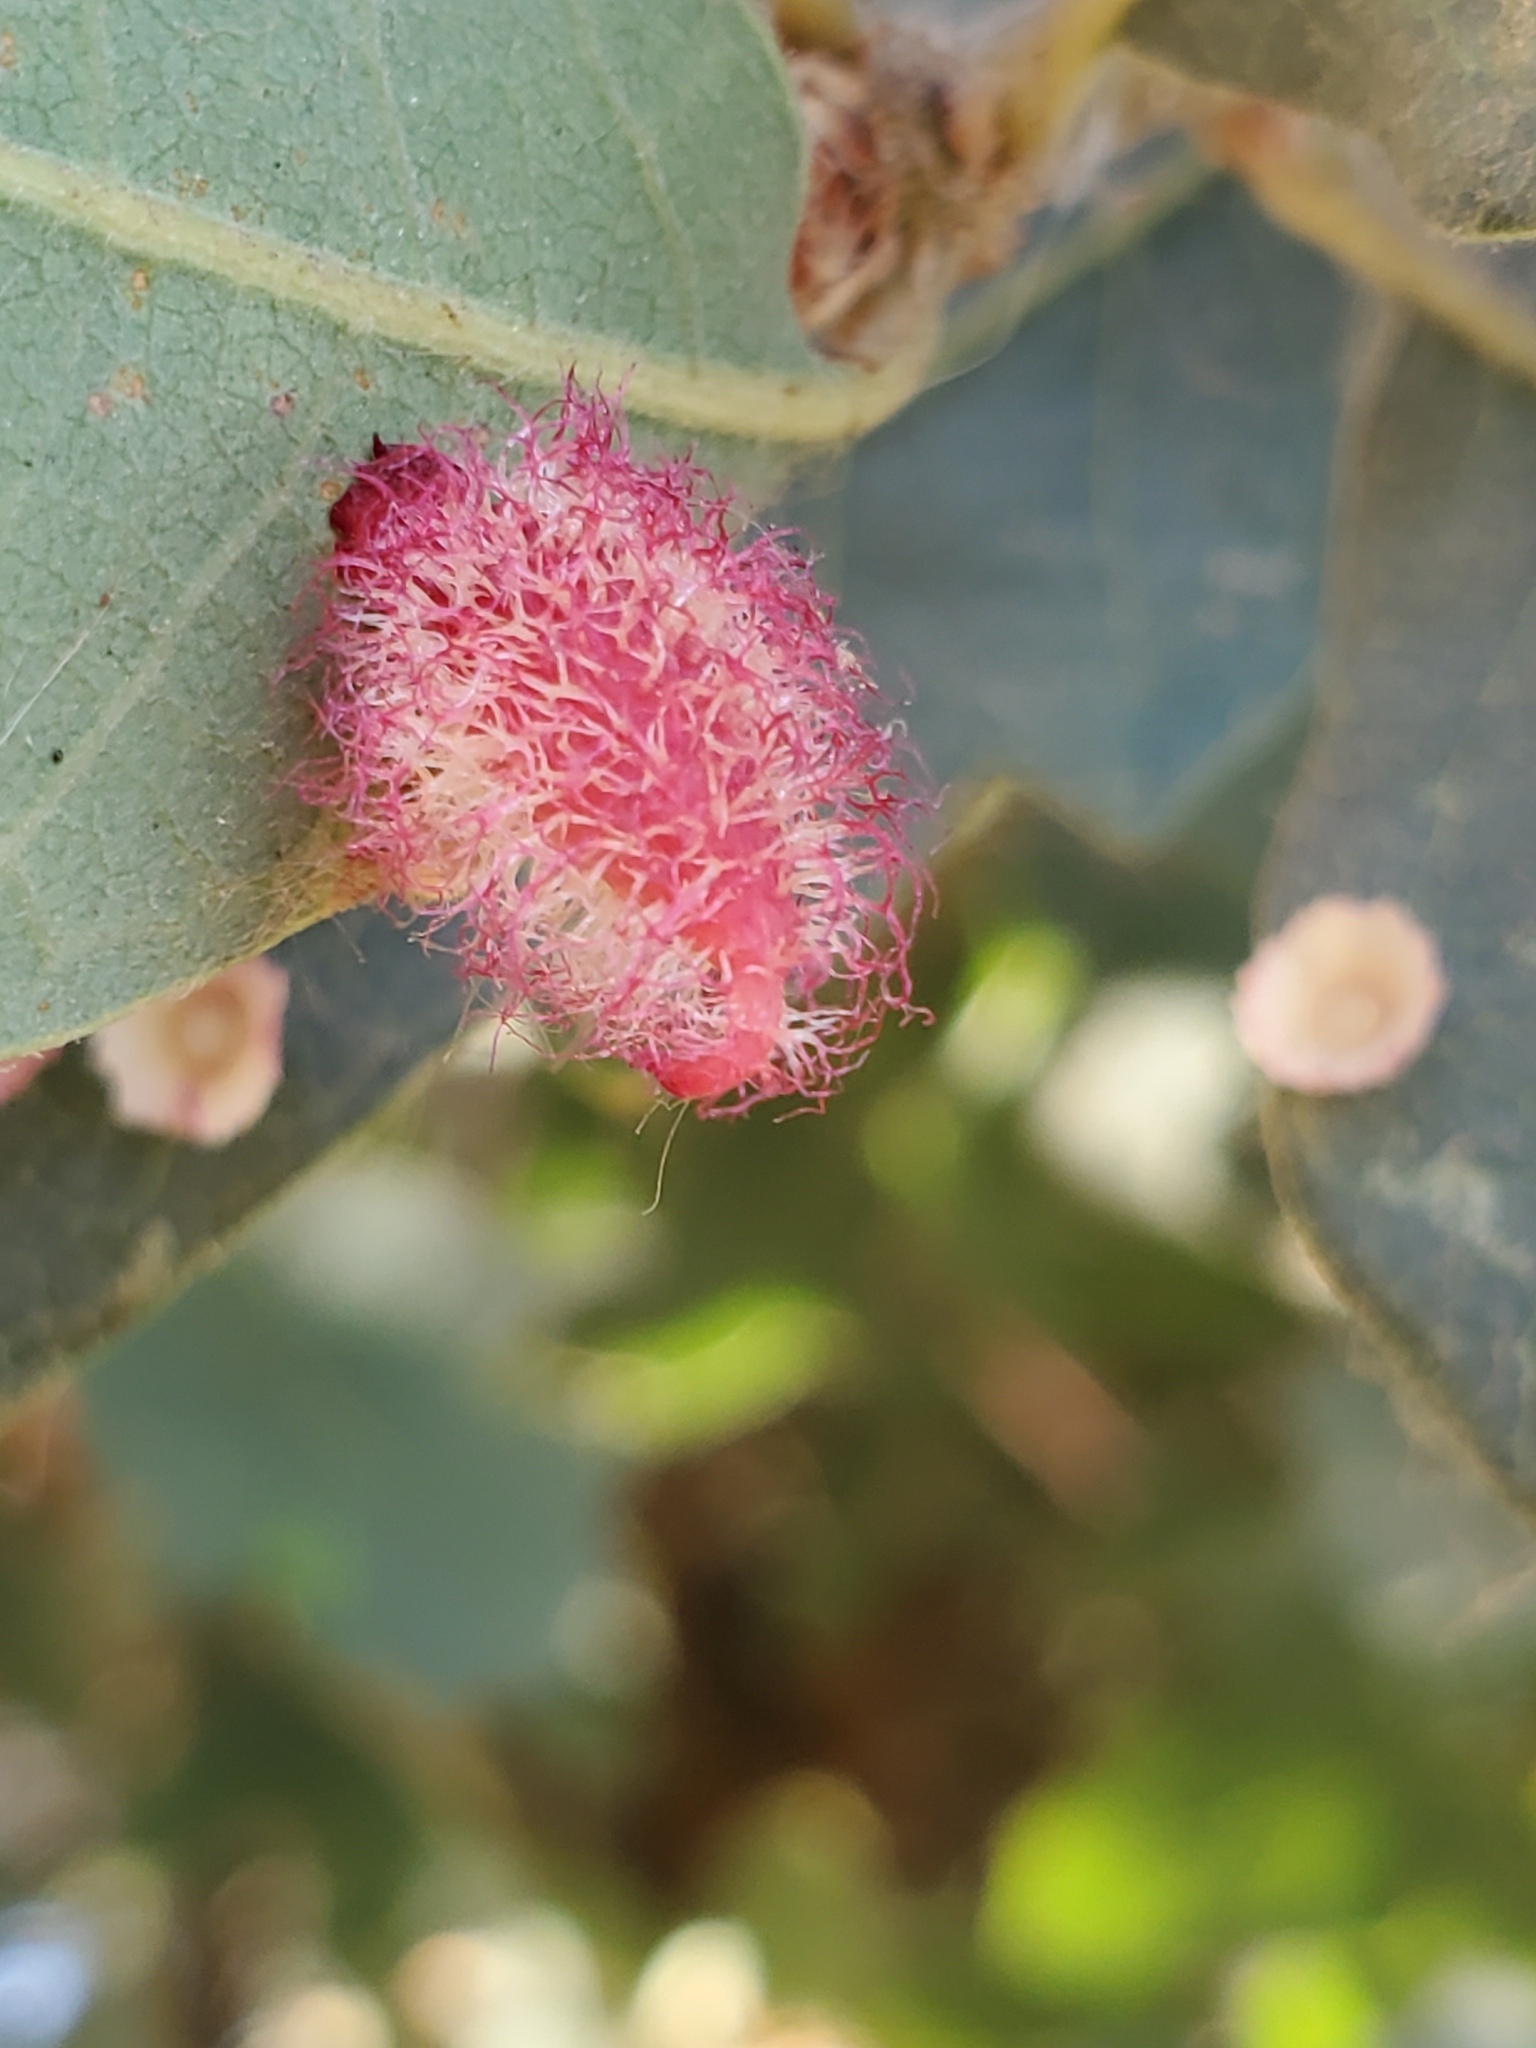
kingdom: Animalia
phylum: Arthropoda
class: Insecta
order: Hymenoptera
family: Cynipidae
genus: Andricus
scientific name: Andricus
